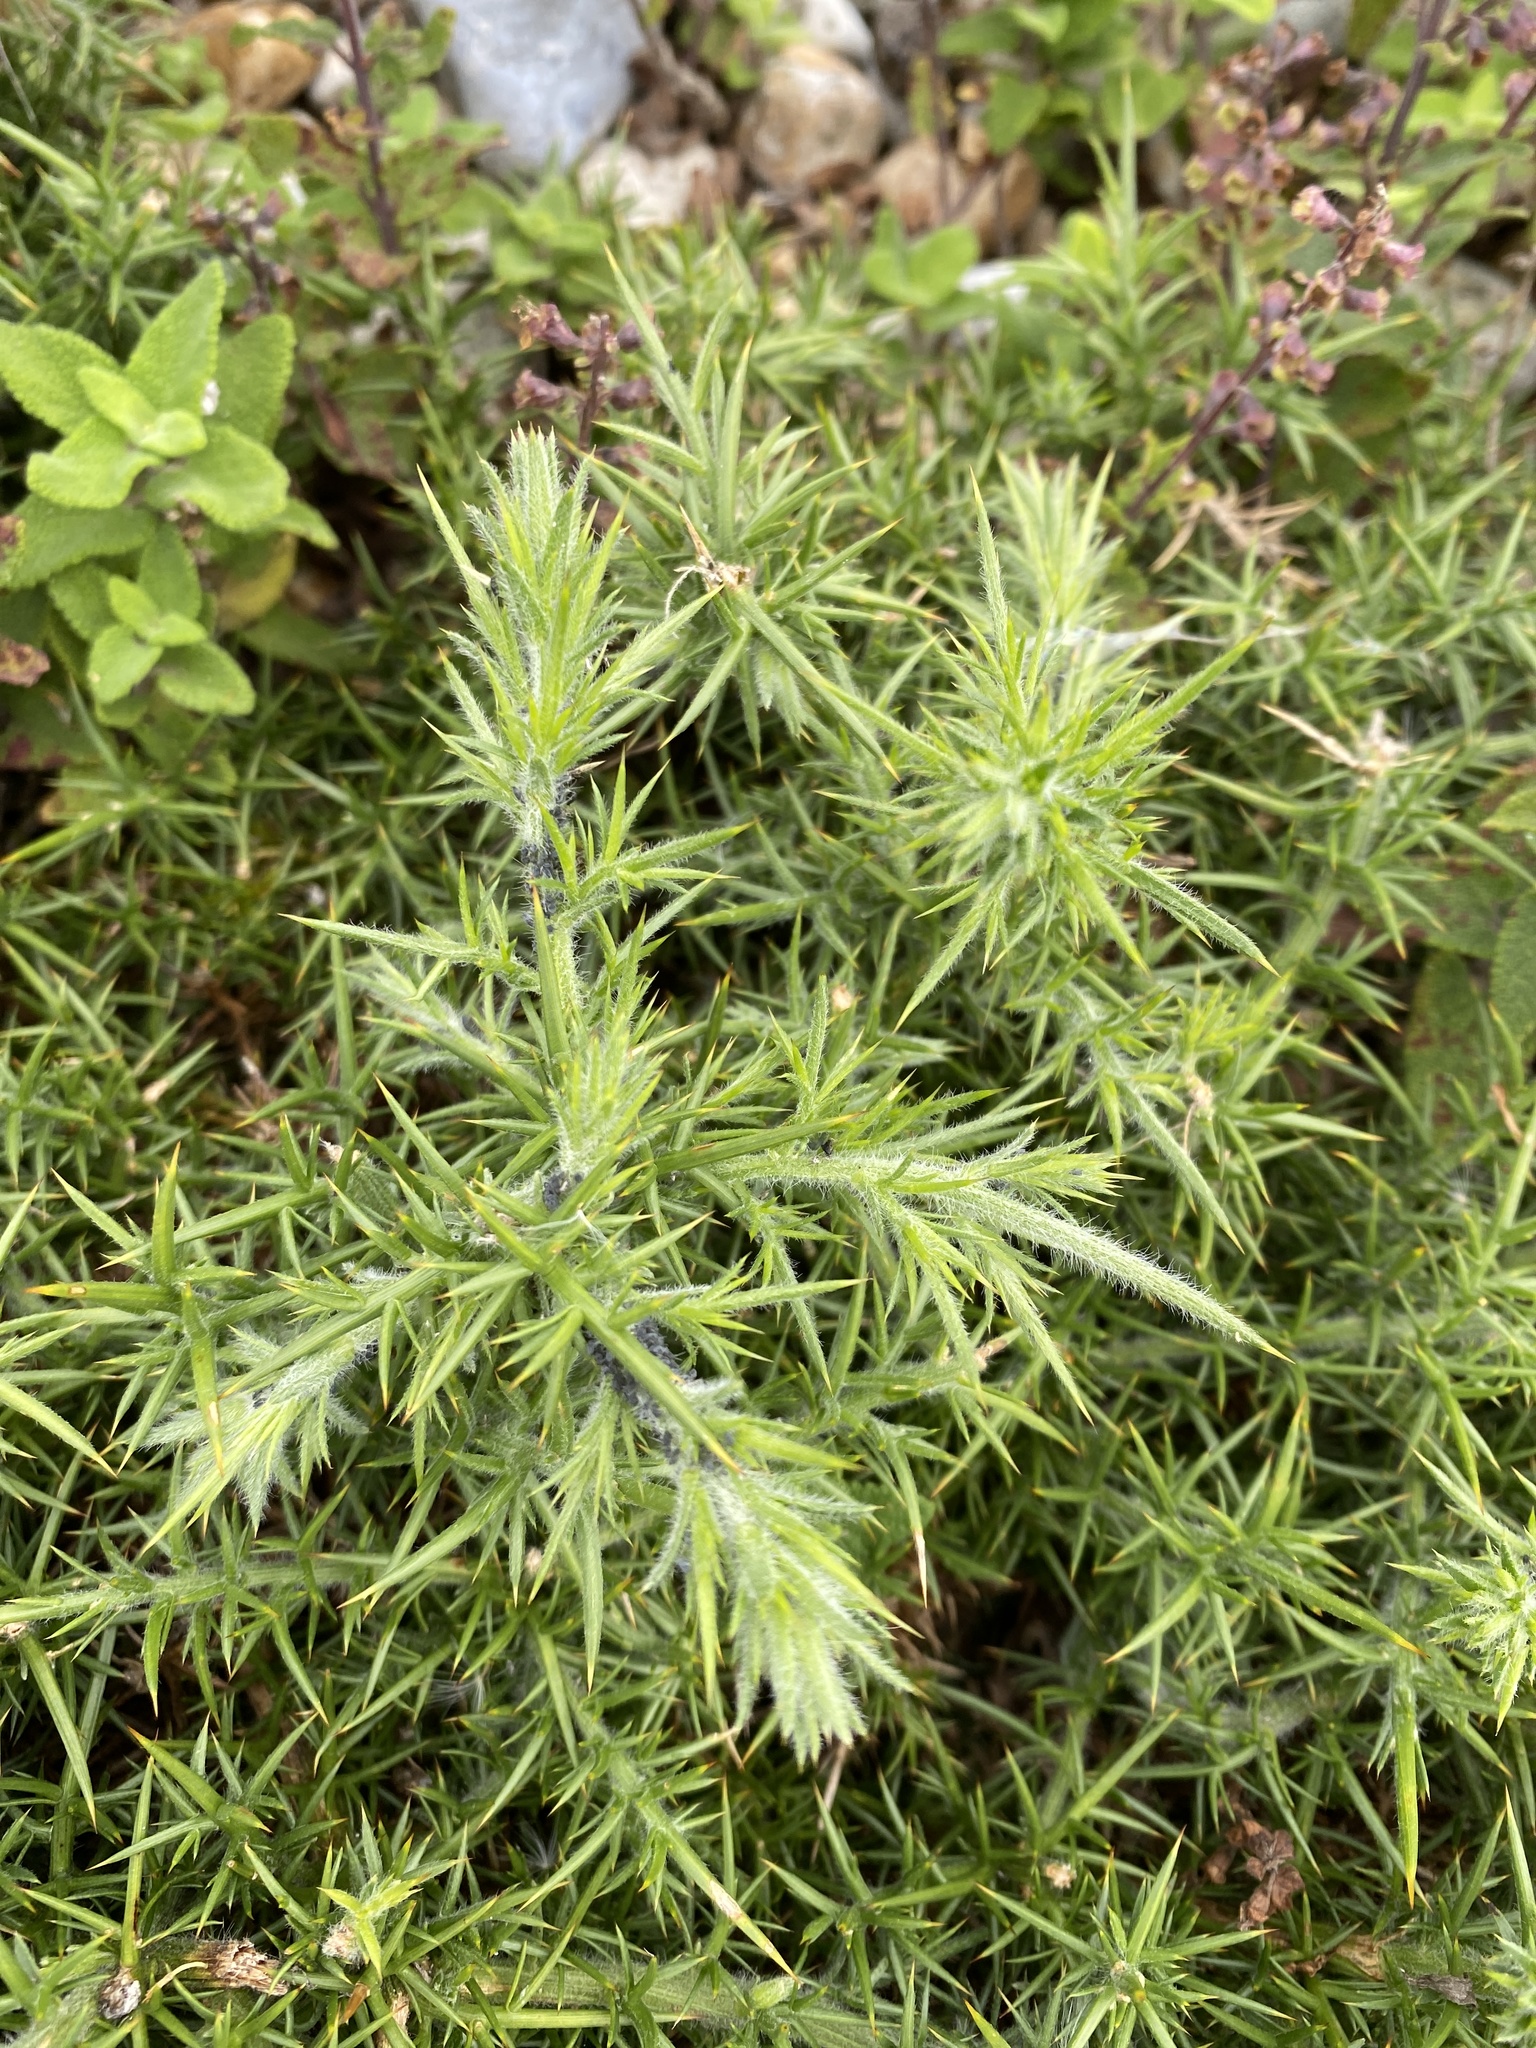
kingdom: Plantae
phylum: Tracheophyta
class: Magnoliopsida
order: Fabales
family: Fabaceae
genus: Ulex
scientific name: Ulex europaeus
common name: Common gorse
